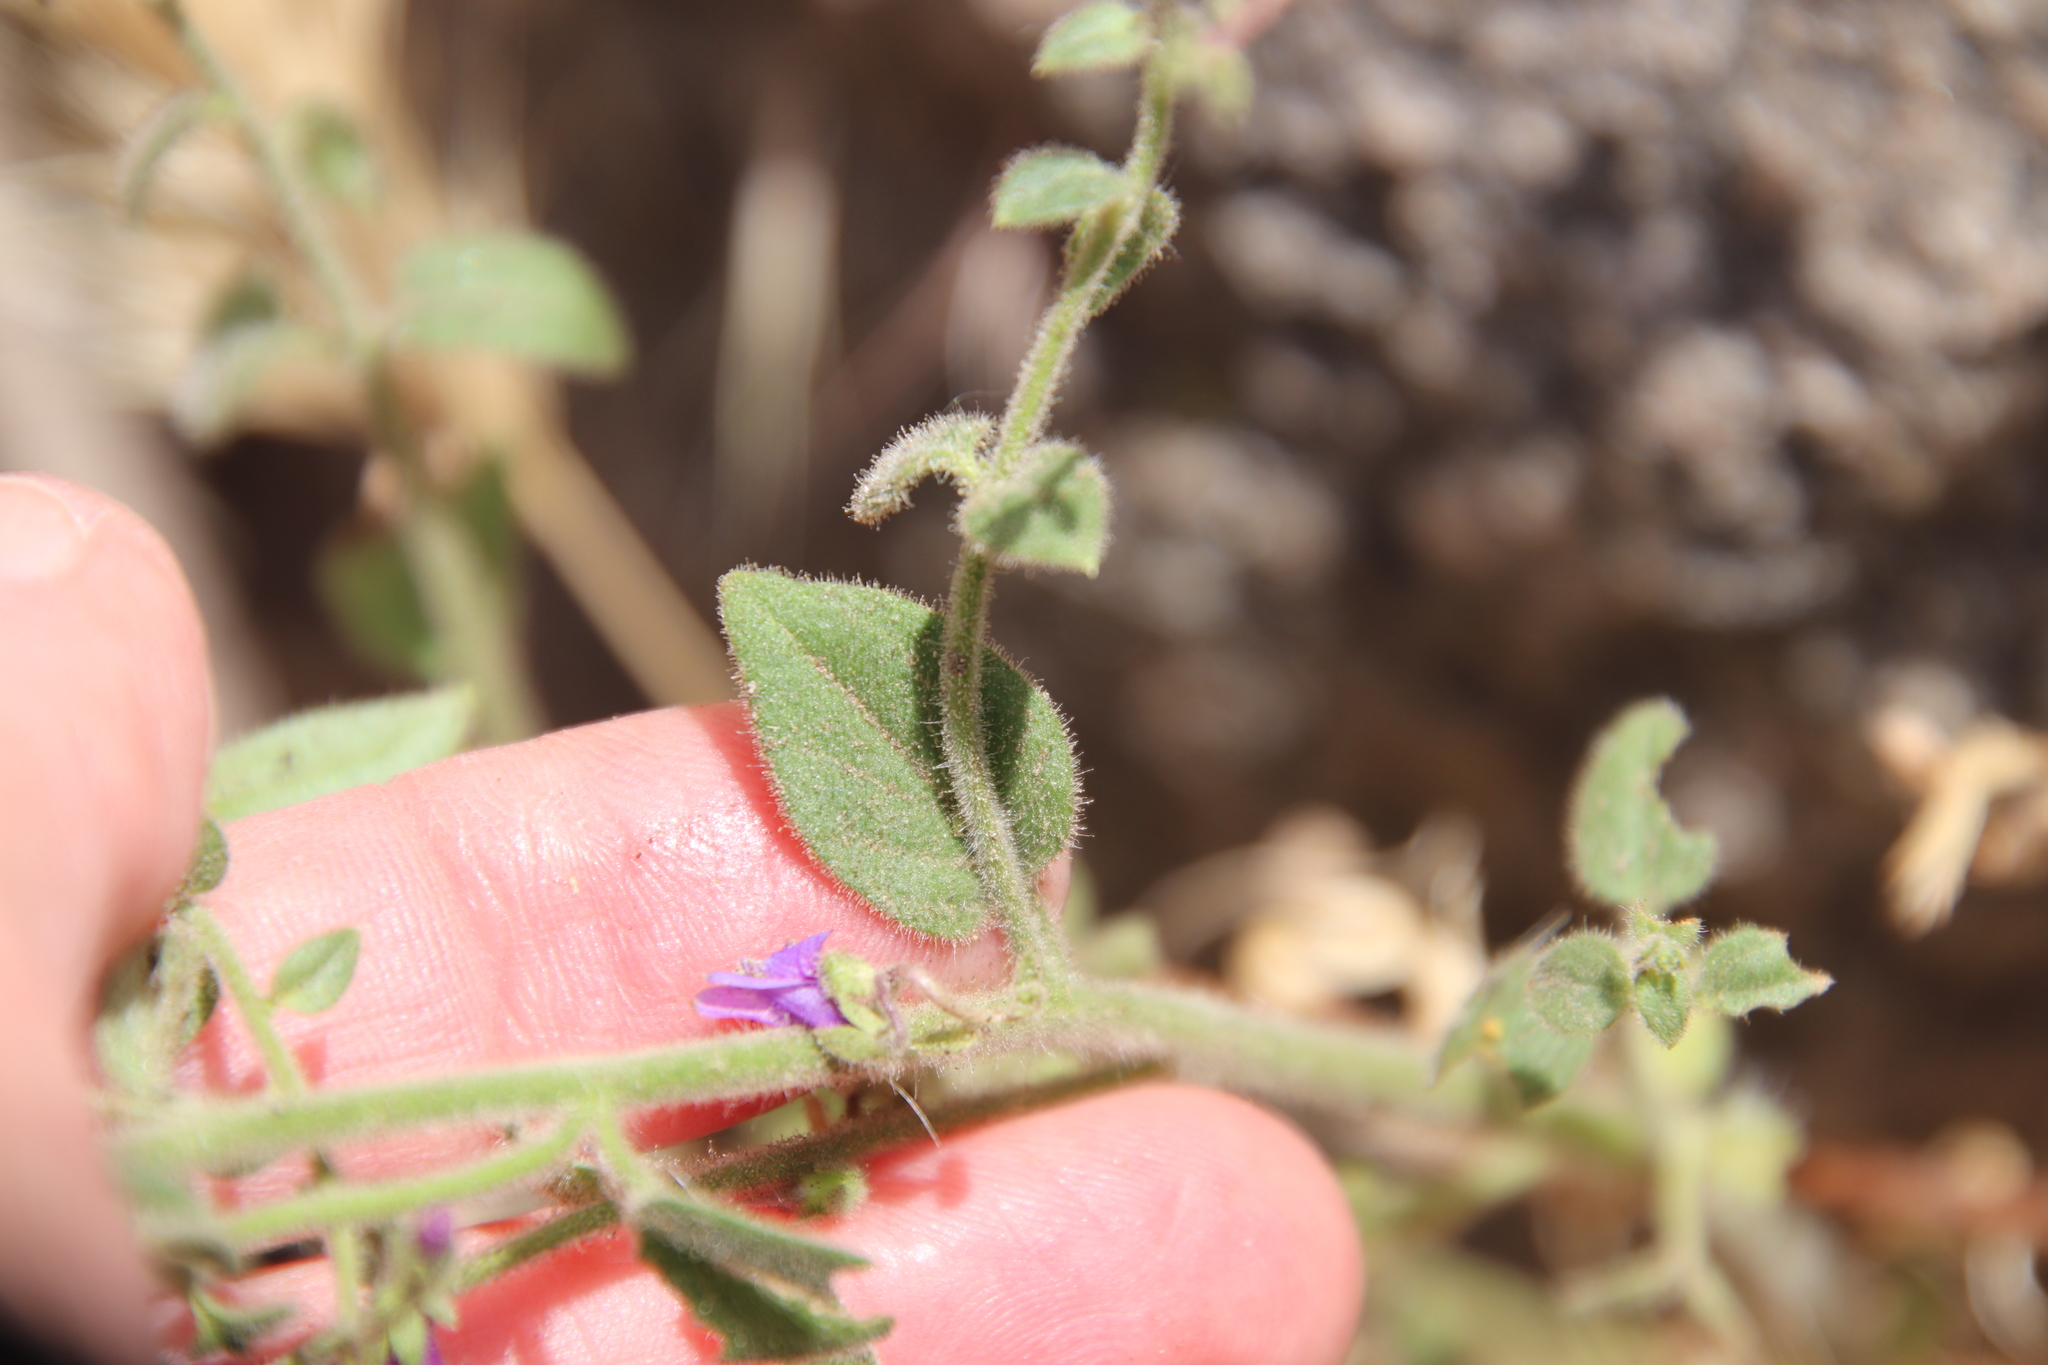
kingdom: Plantae
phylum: Tracheophyta
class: Magnoliopsida
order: Lamiales
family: Plantaginaceae
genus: Sairocarpus
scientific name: Sairocarpus nuttallianus
